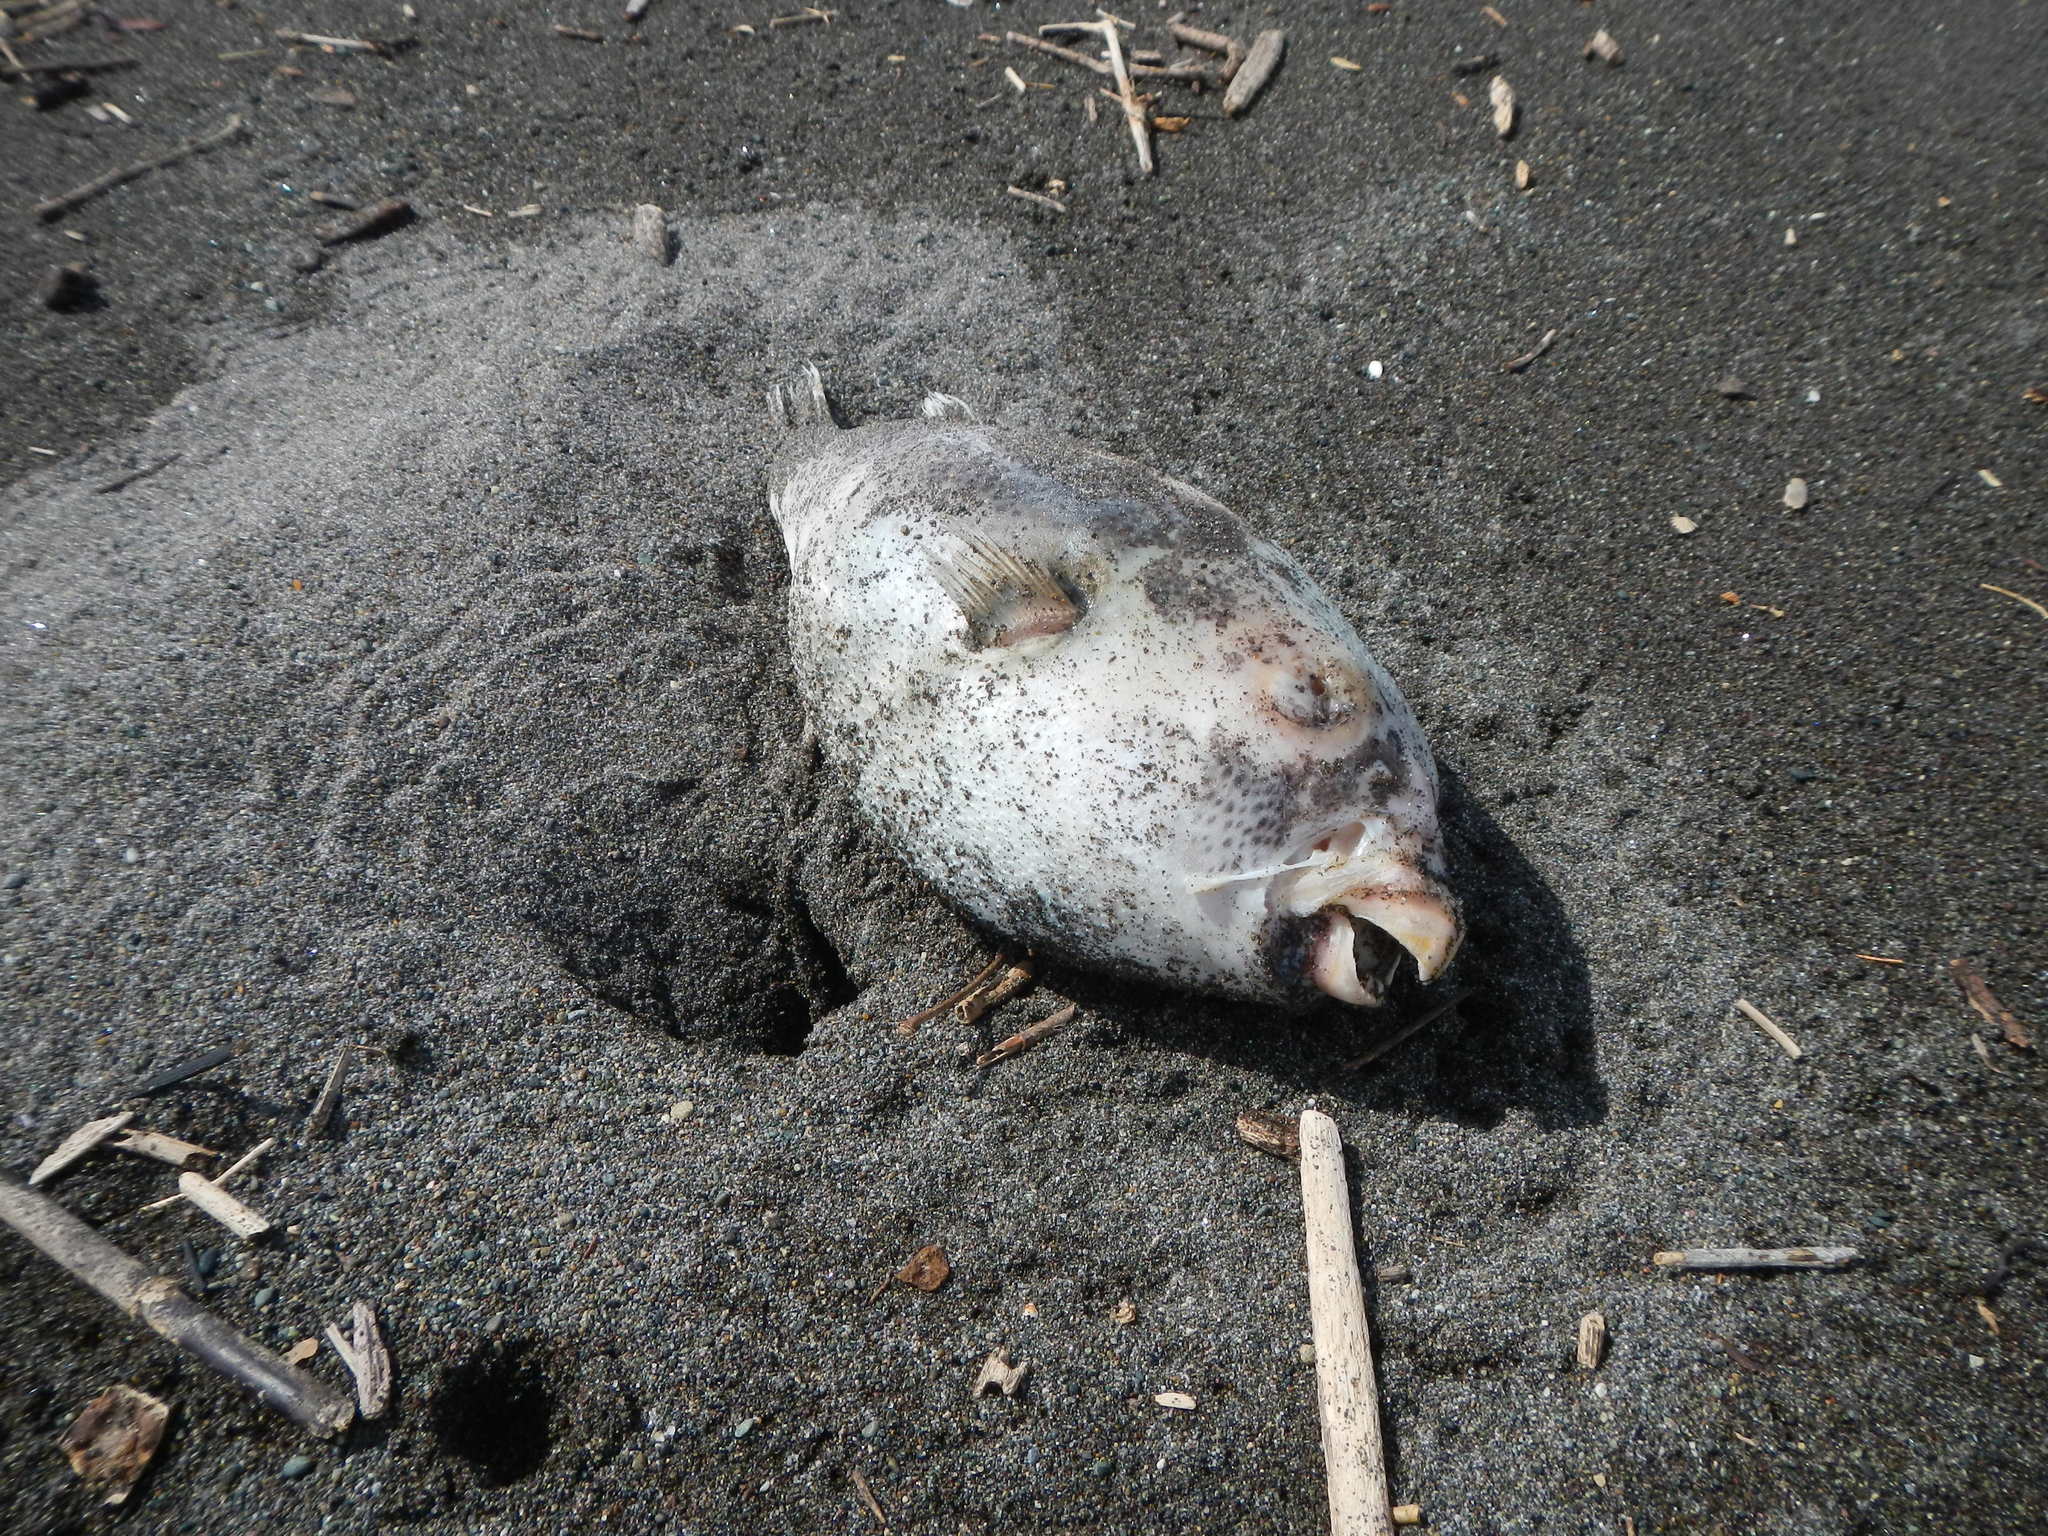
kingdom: Animalia
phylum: Chordata
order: Tetraodontiformes
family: Tetraodontidae
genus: Arothron
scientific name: Arothron meleagris
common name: Guinea-fowl pufferfish
